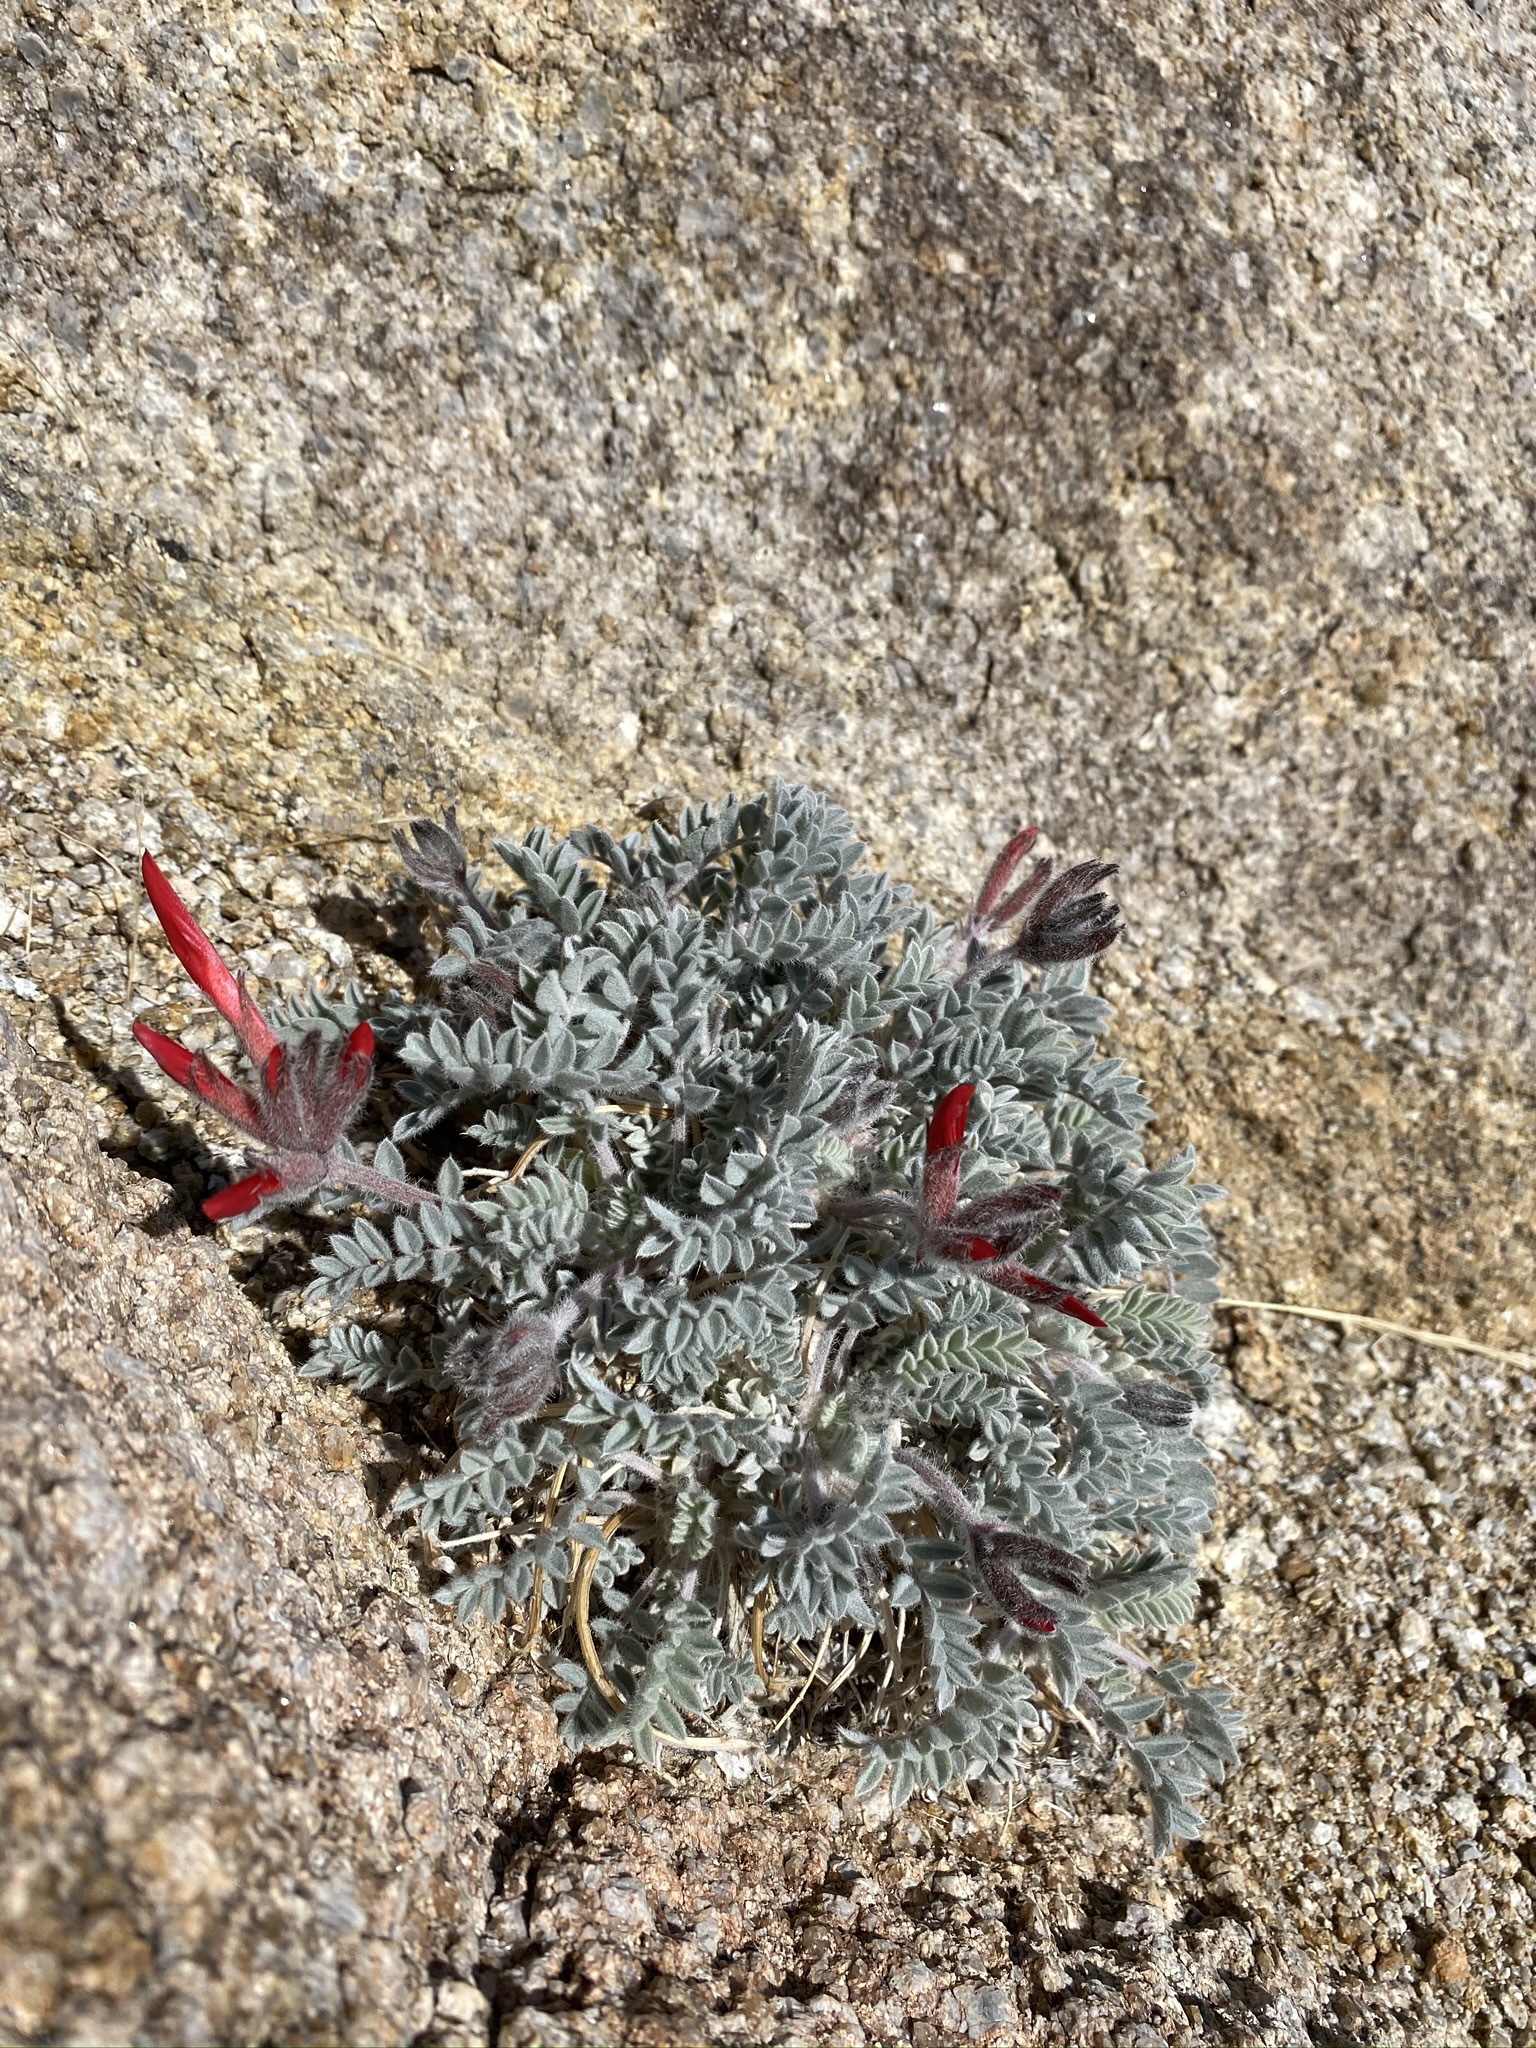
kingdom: Plantae
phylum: Tracheophyta
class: Magnoliopsida
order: Fabales
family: Fabaceae
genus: Astragalus
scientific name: Astragalus coccineus
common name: Scarlet milk-vetch
